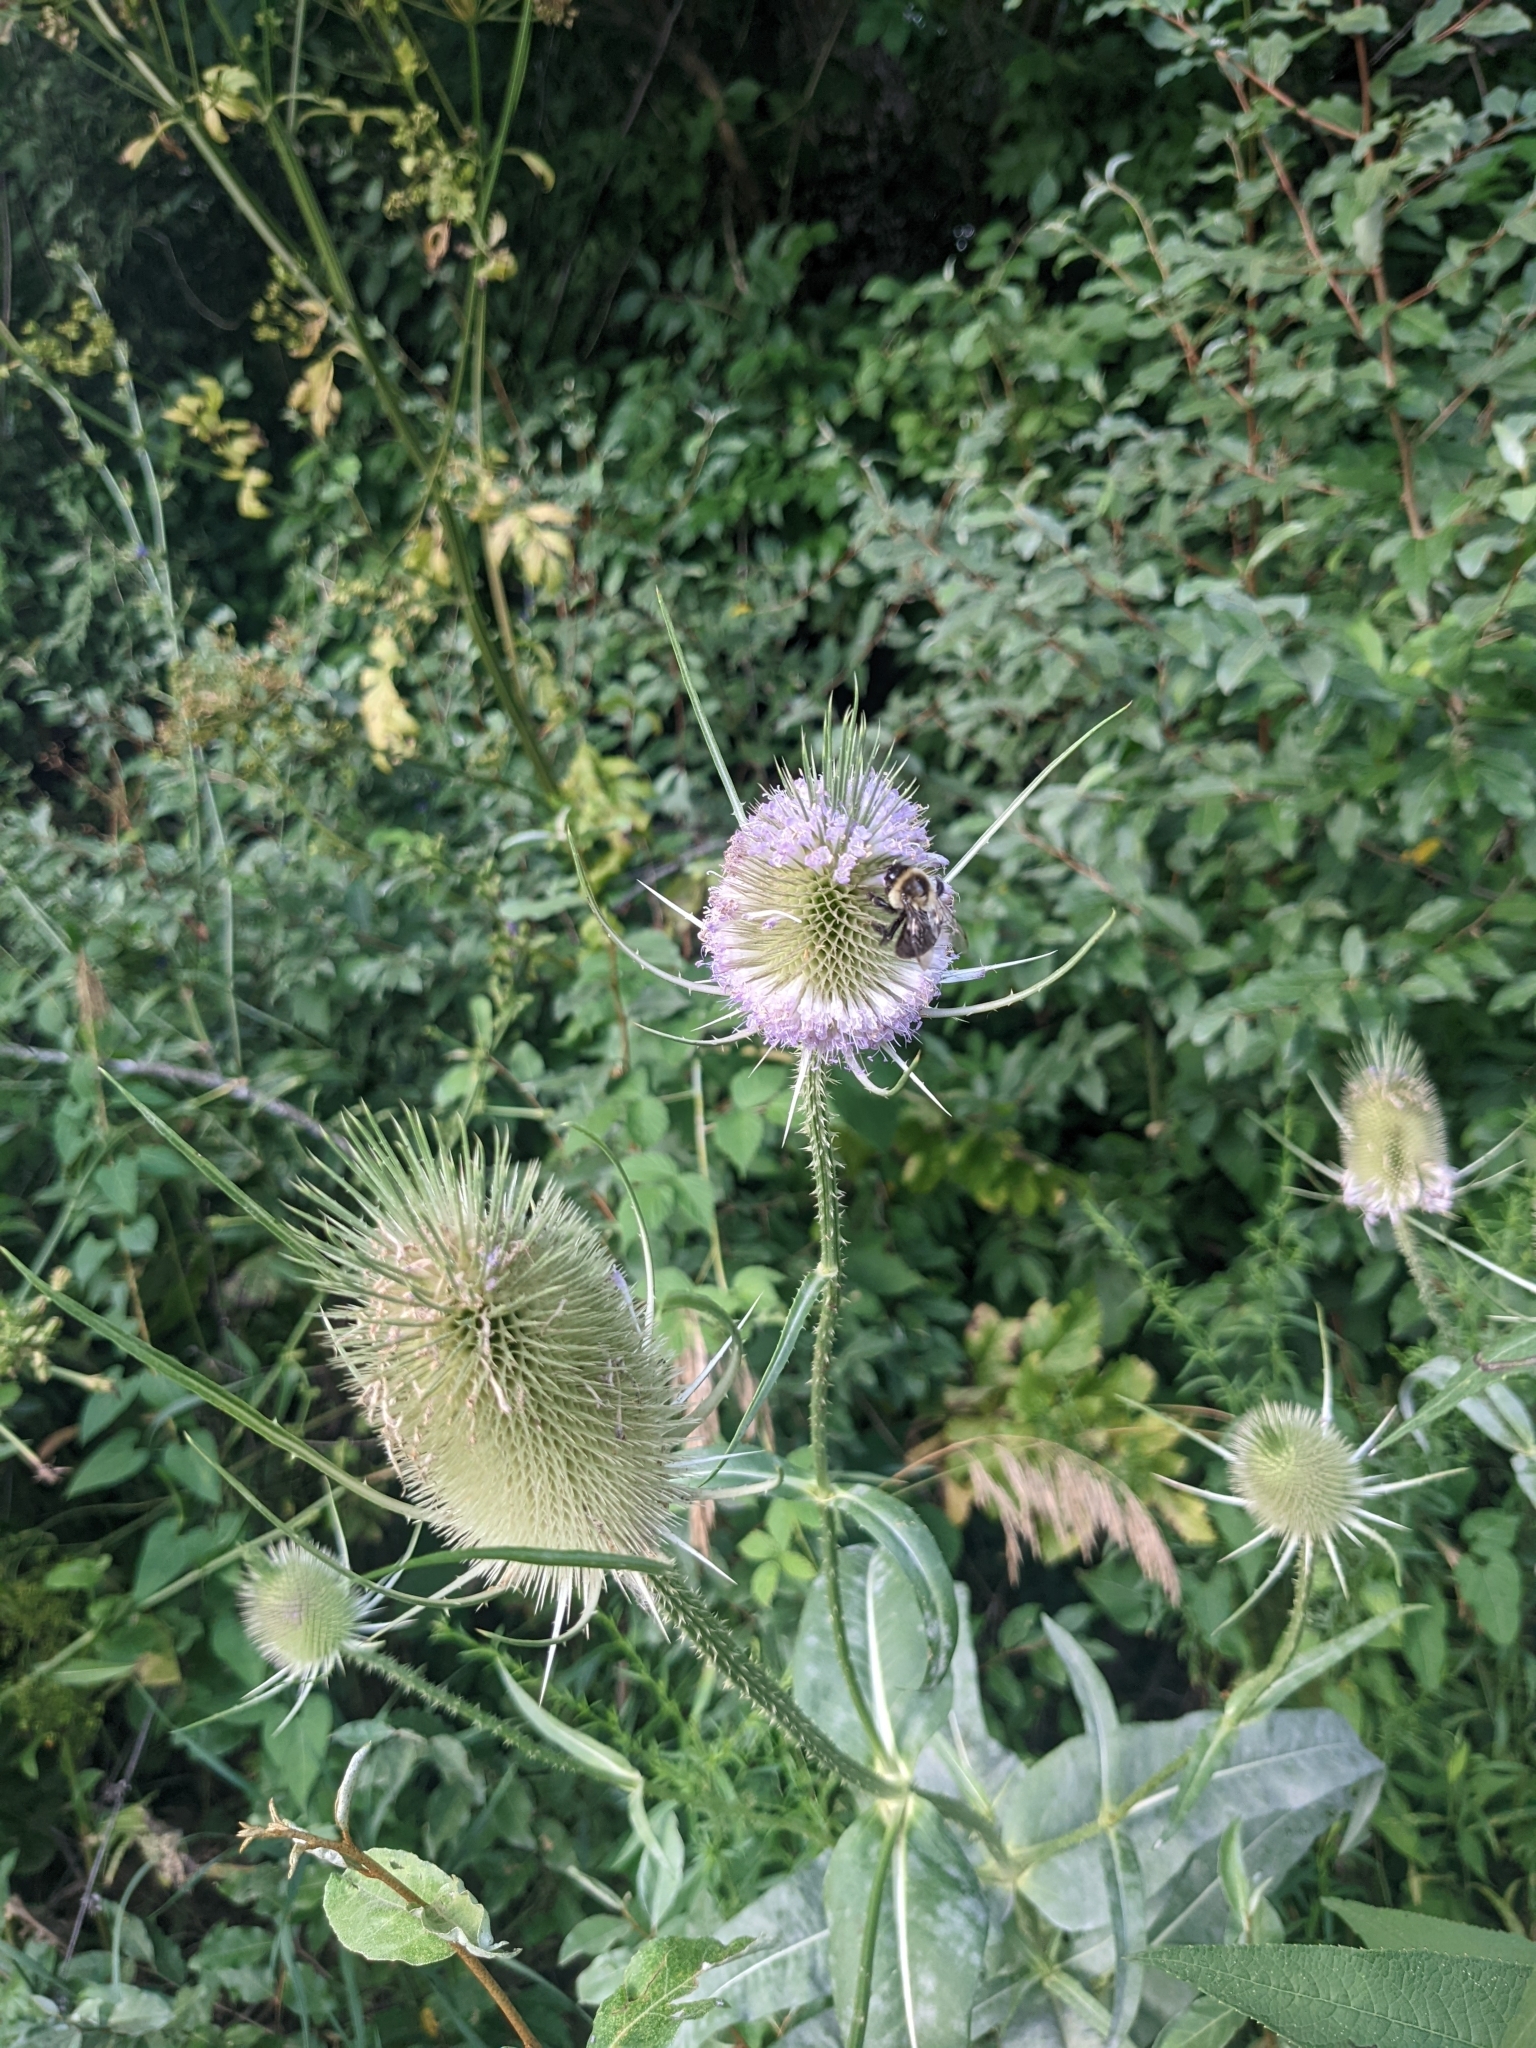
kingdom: Plantae
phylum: Tracheophyta
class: Magnoliopsida
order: Dipsacales
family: Caprifoliaceae
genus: Dipsacus
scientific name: Dipsacus fullonum
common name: Teasel
